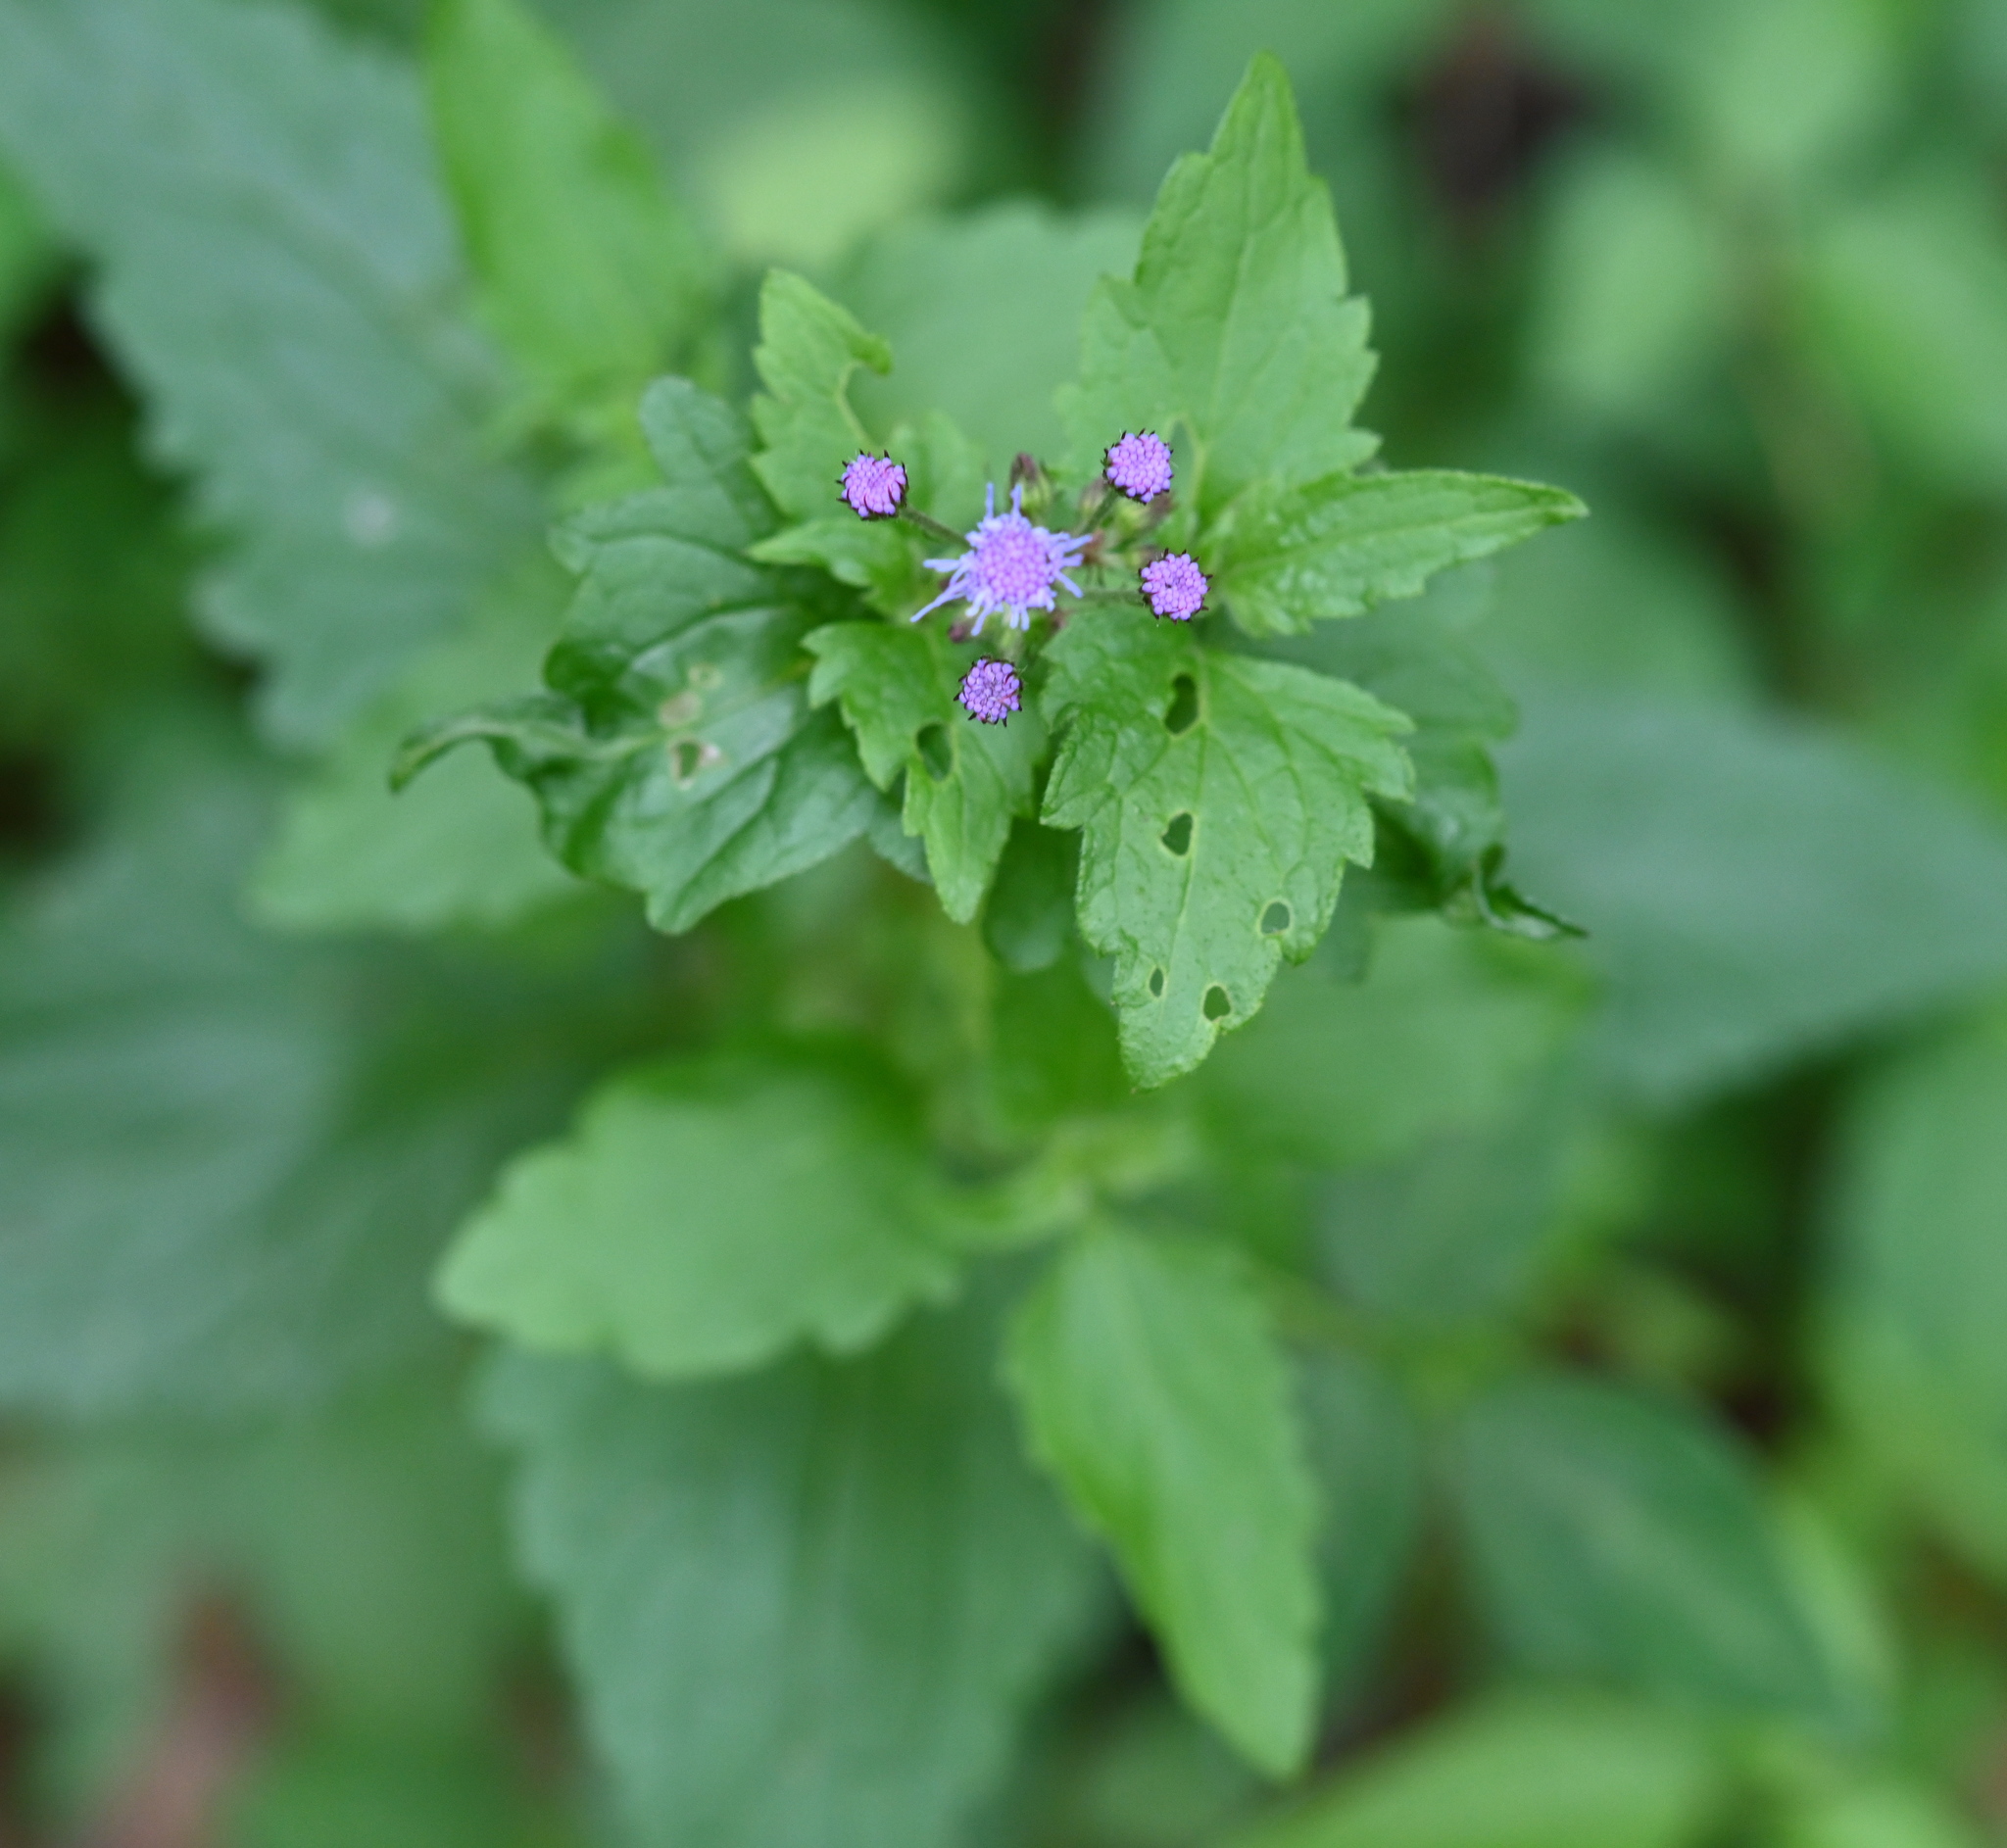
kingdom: Plantae
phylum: Tracheophyta
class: Magnoliopsida
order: Asterales
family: Asteraceae
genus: Conoclinium
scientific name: Conoclinium coelestinum
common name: Blue mistflower
